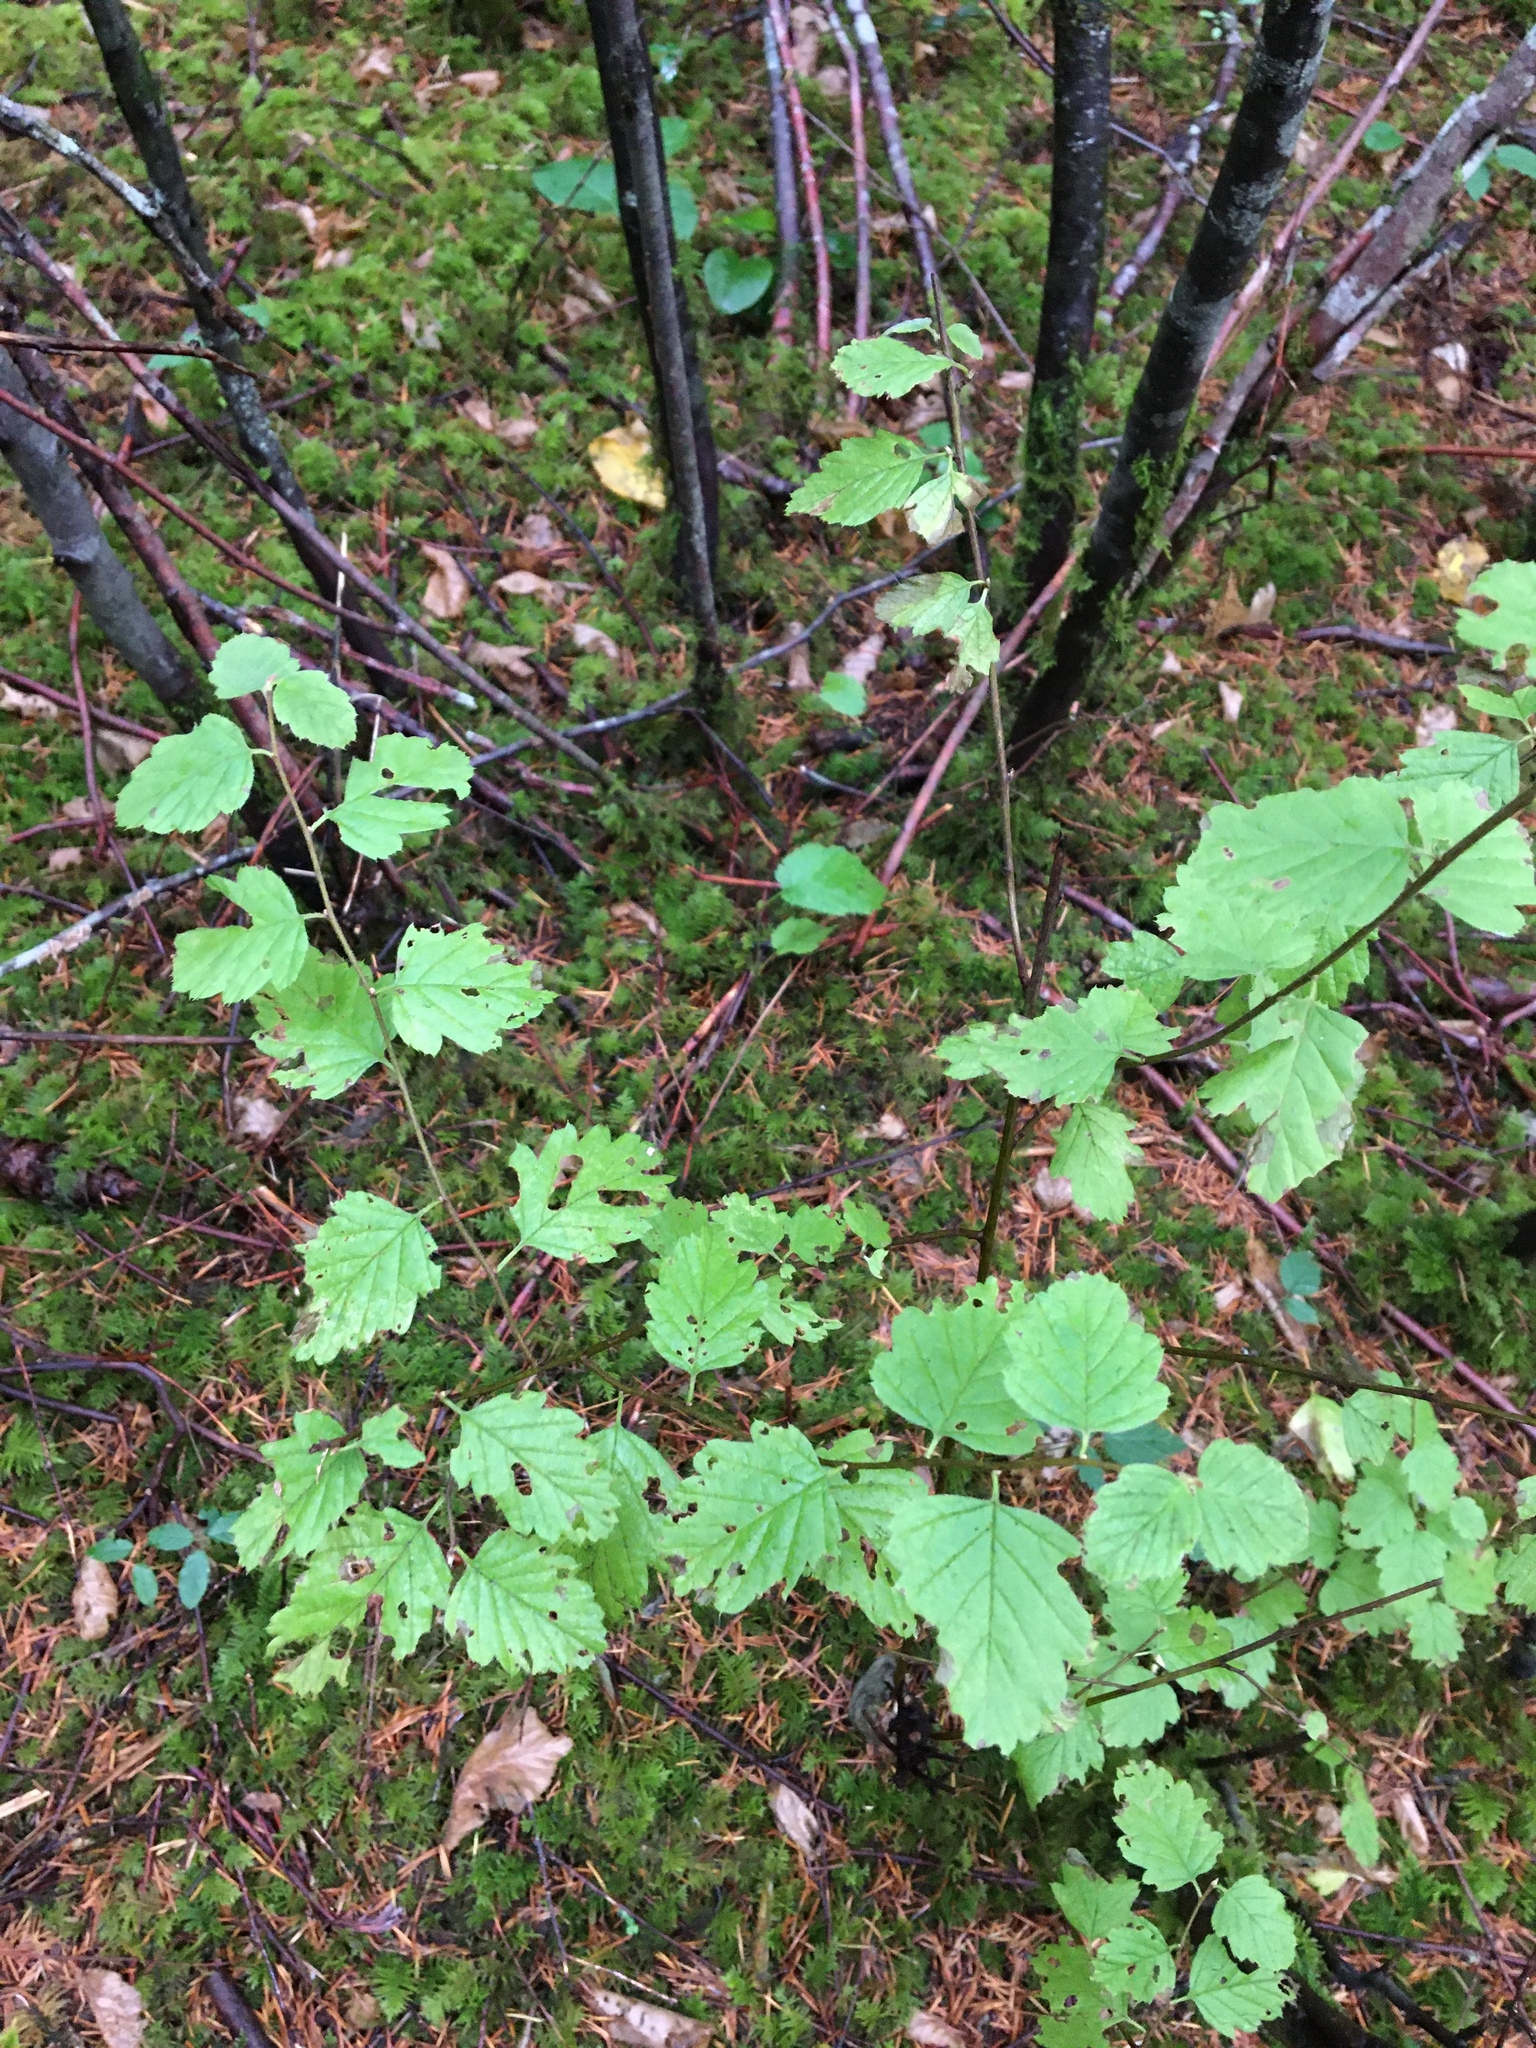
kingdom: Plantae
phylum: Tracheophyta
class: Magnoliopsida
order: Rosales
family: Rosaceae
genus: Holodiscus
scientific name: Holodiscus discolor
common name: Oceanspray
